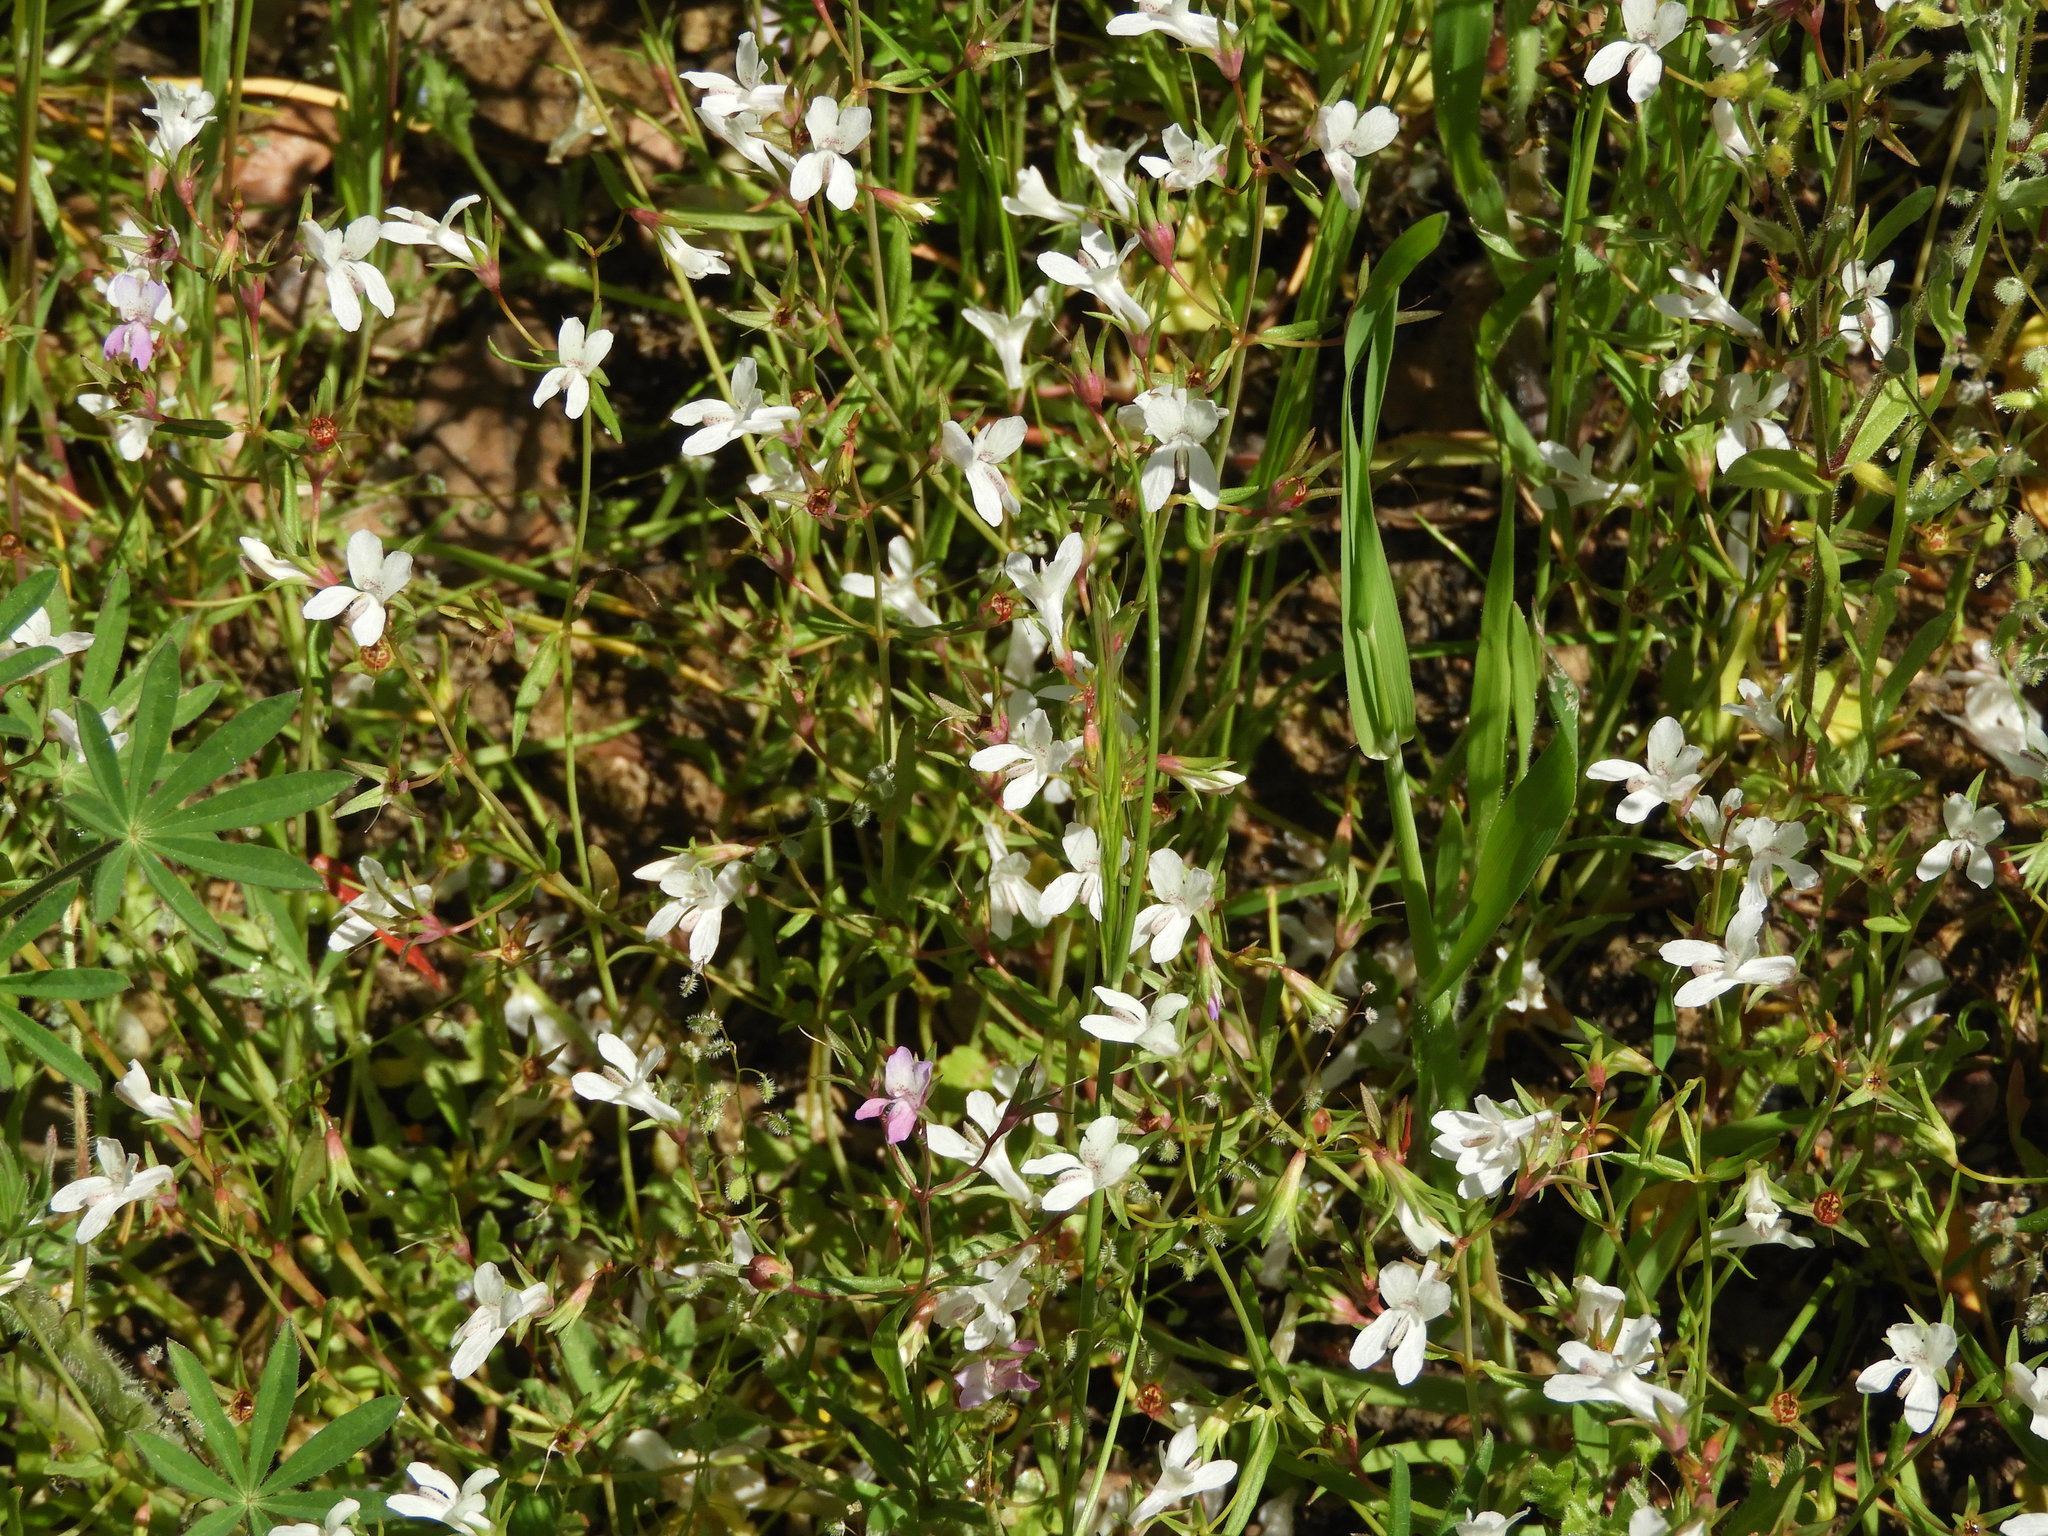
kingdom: Plantae
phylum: Tracheophyta
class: Magnoliopsida
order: Lamiales
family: Plantaginaceae
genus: Collinsia
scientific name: Collinsia sparsiflora
